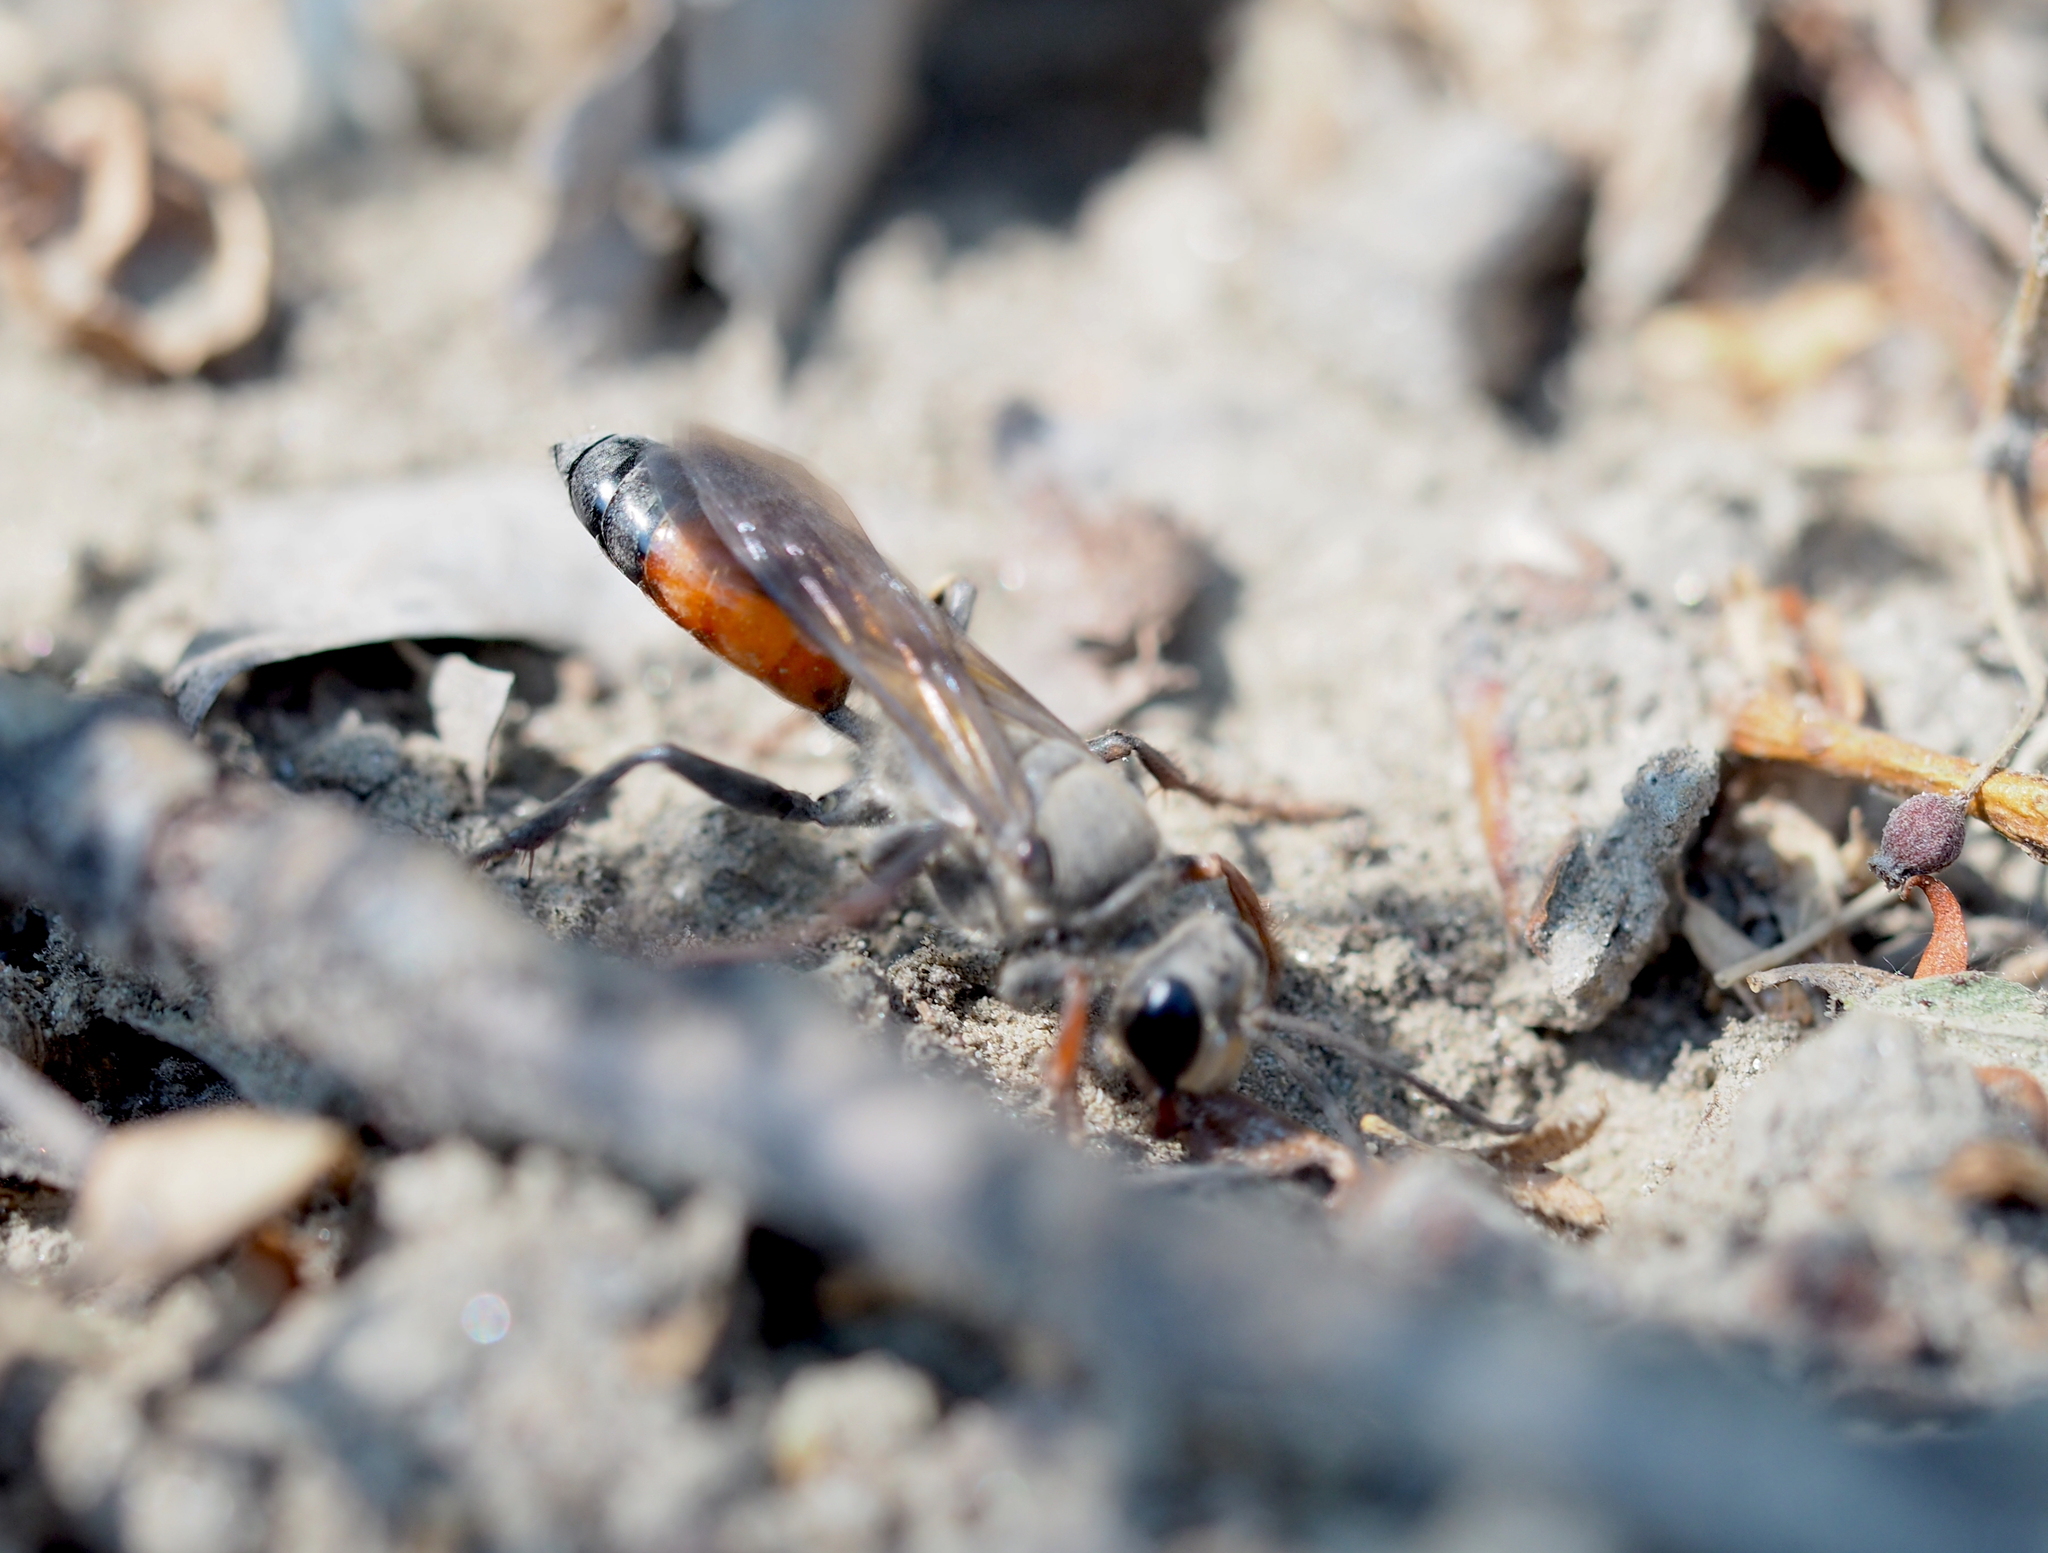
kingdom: Animalia
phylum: Arthropoda
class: Insecta
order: Hymenoptera
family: Sphecidae
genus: Sphex
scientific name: Sphex funerarius
